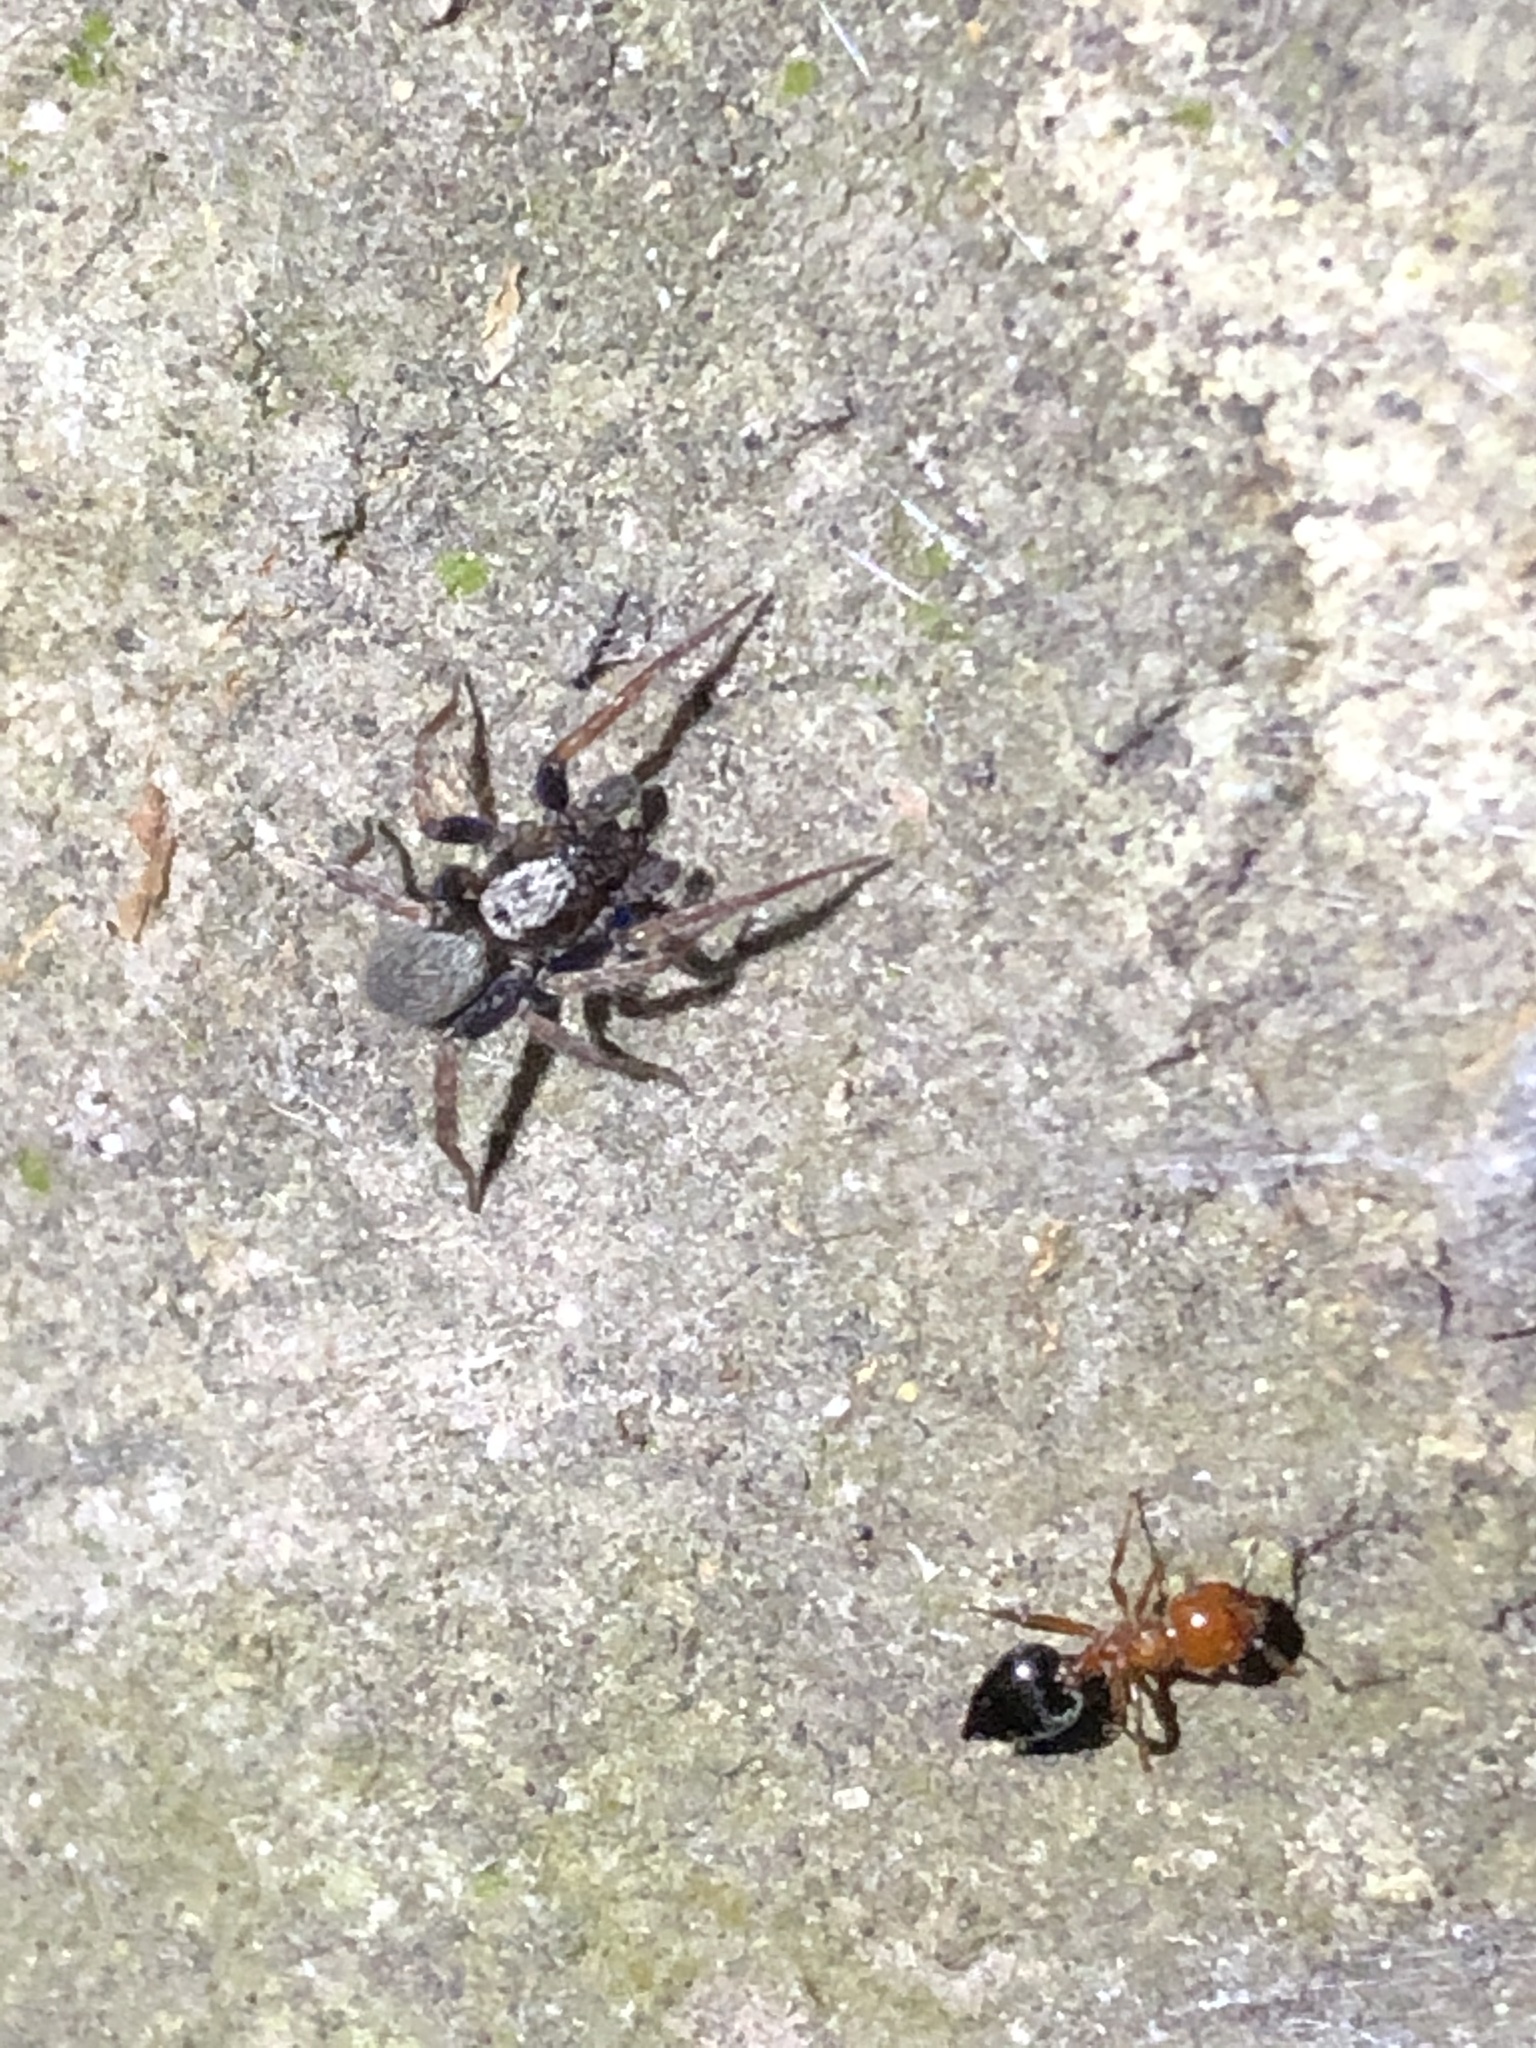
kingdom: Animalia
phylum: Arthropoda
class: Insecta
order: Hymenoptera
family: Formicidae
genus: Crematogaster
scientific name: Crematogaster laeviuscula
